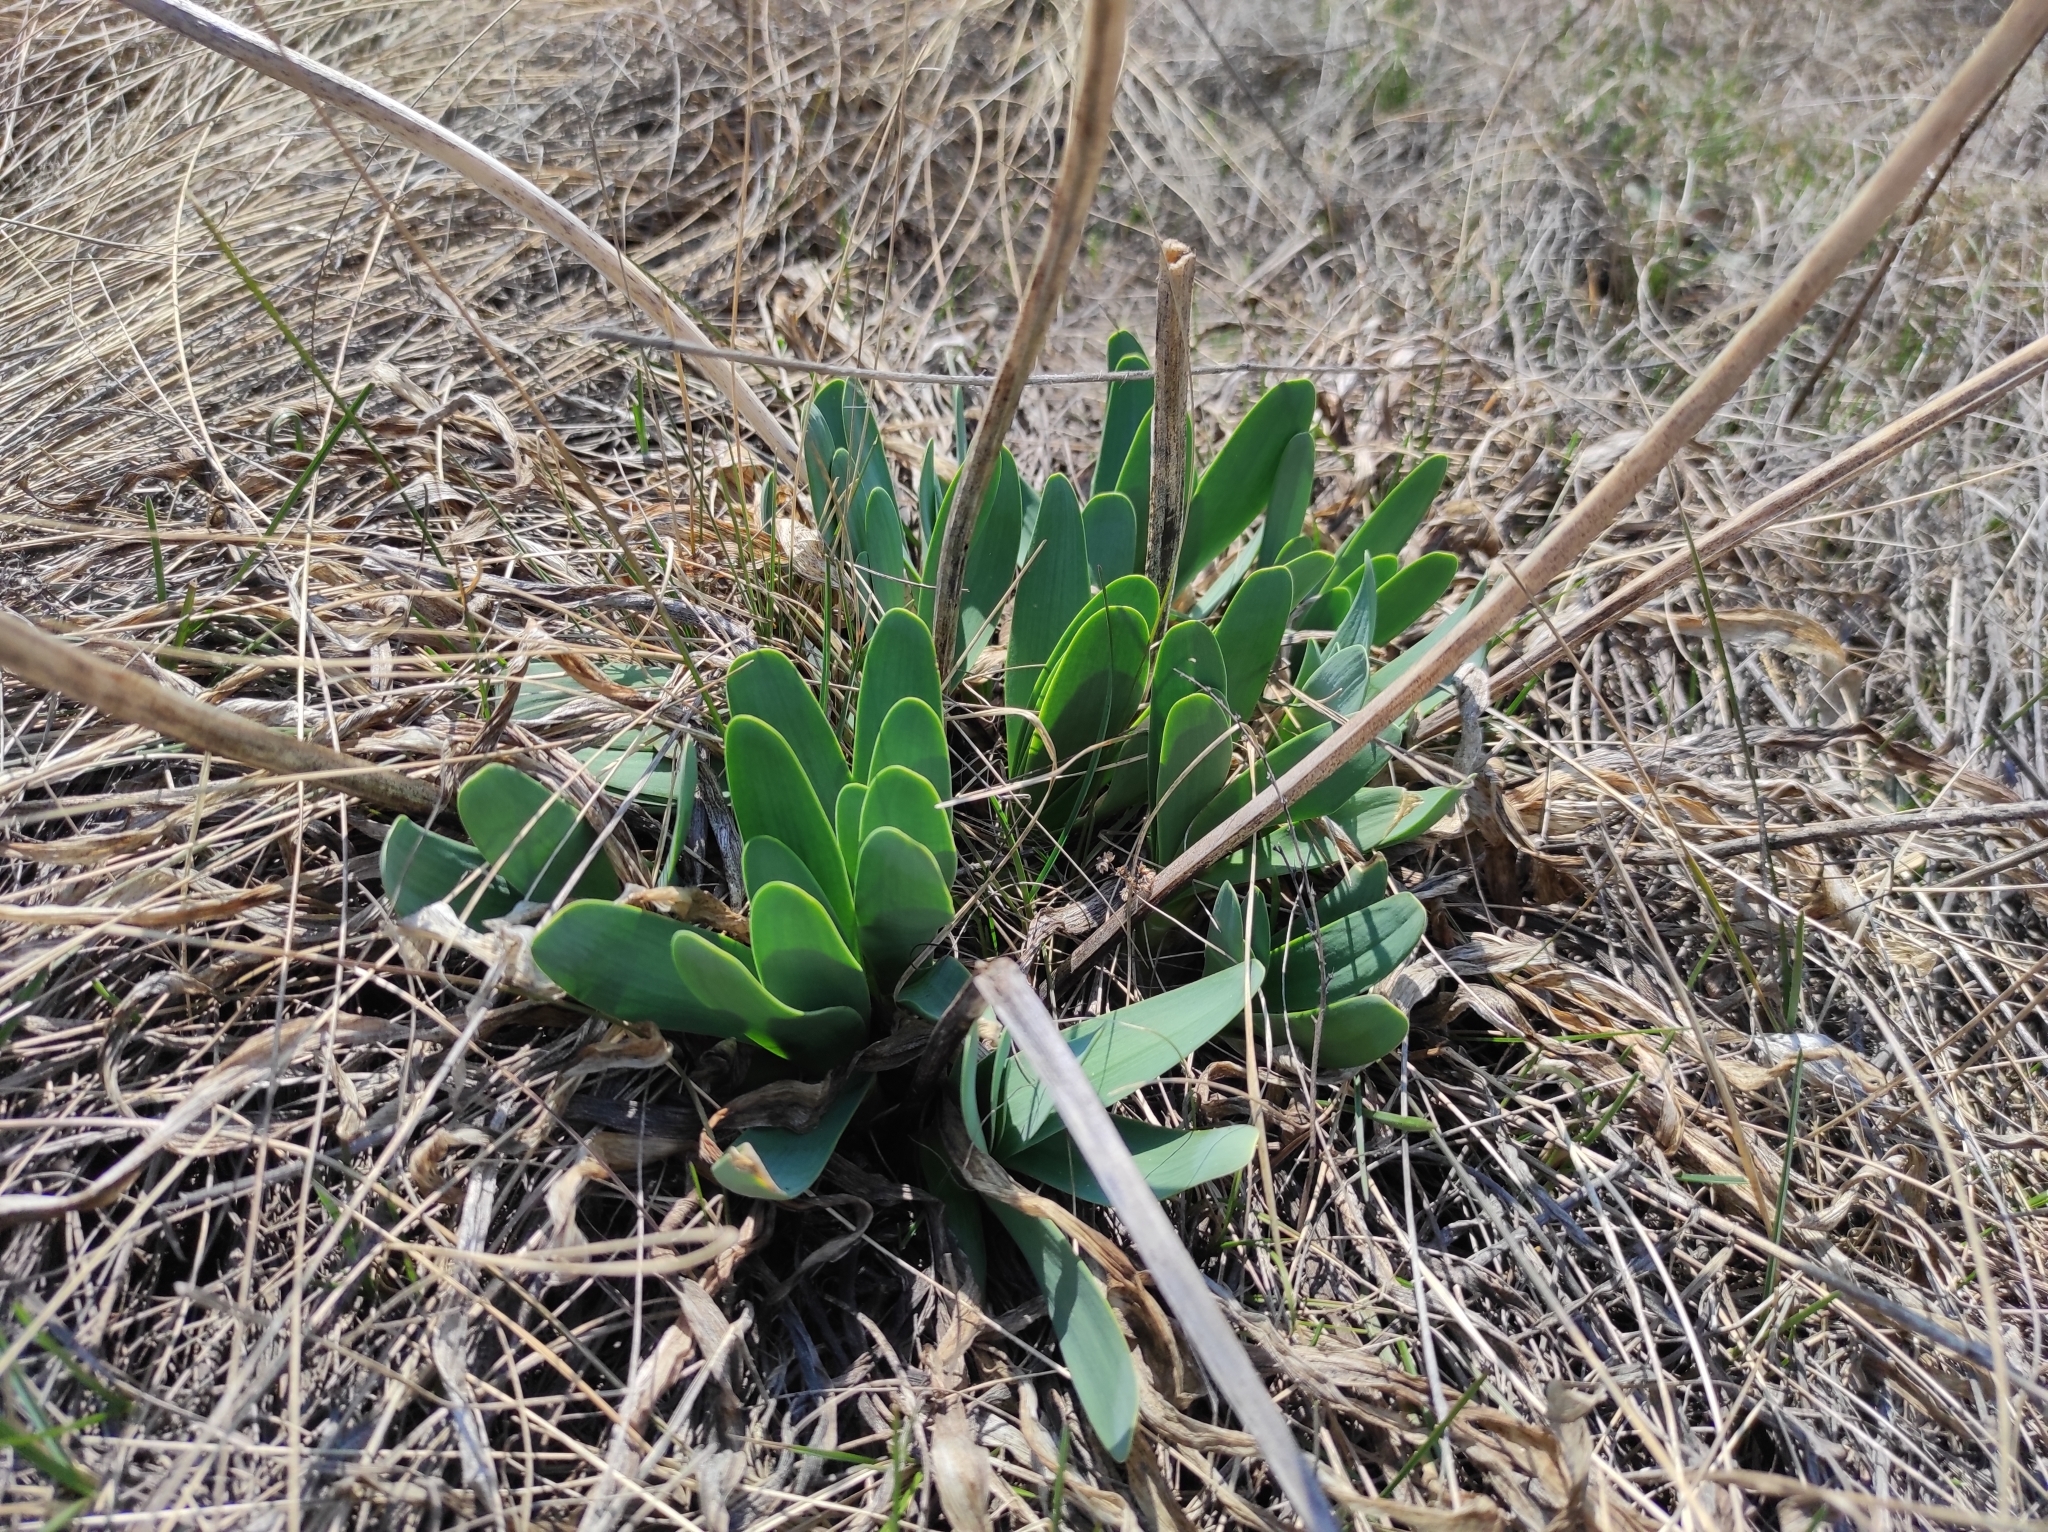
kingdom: Plantae
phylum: Tracheophyta
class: Liliopsida
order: Asparagales
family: Amaryllidaceae
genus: Allium
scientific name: Allium nutans
